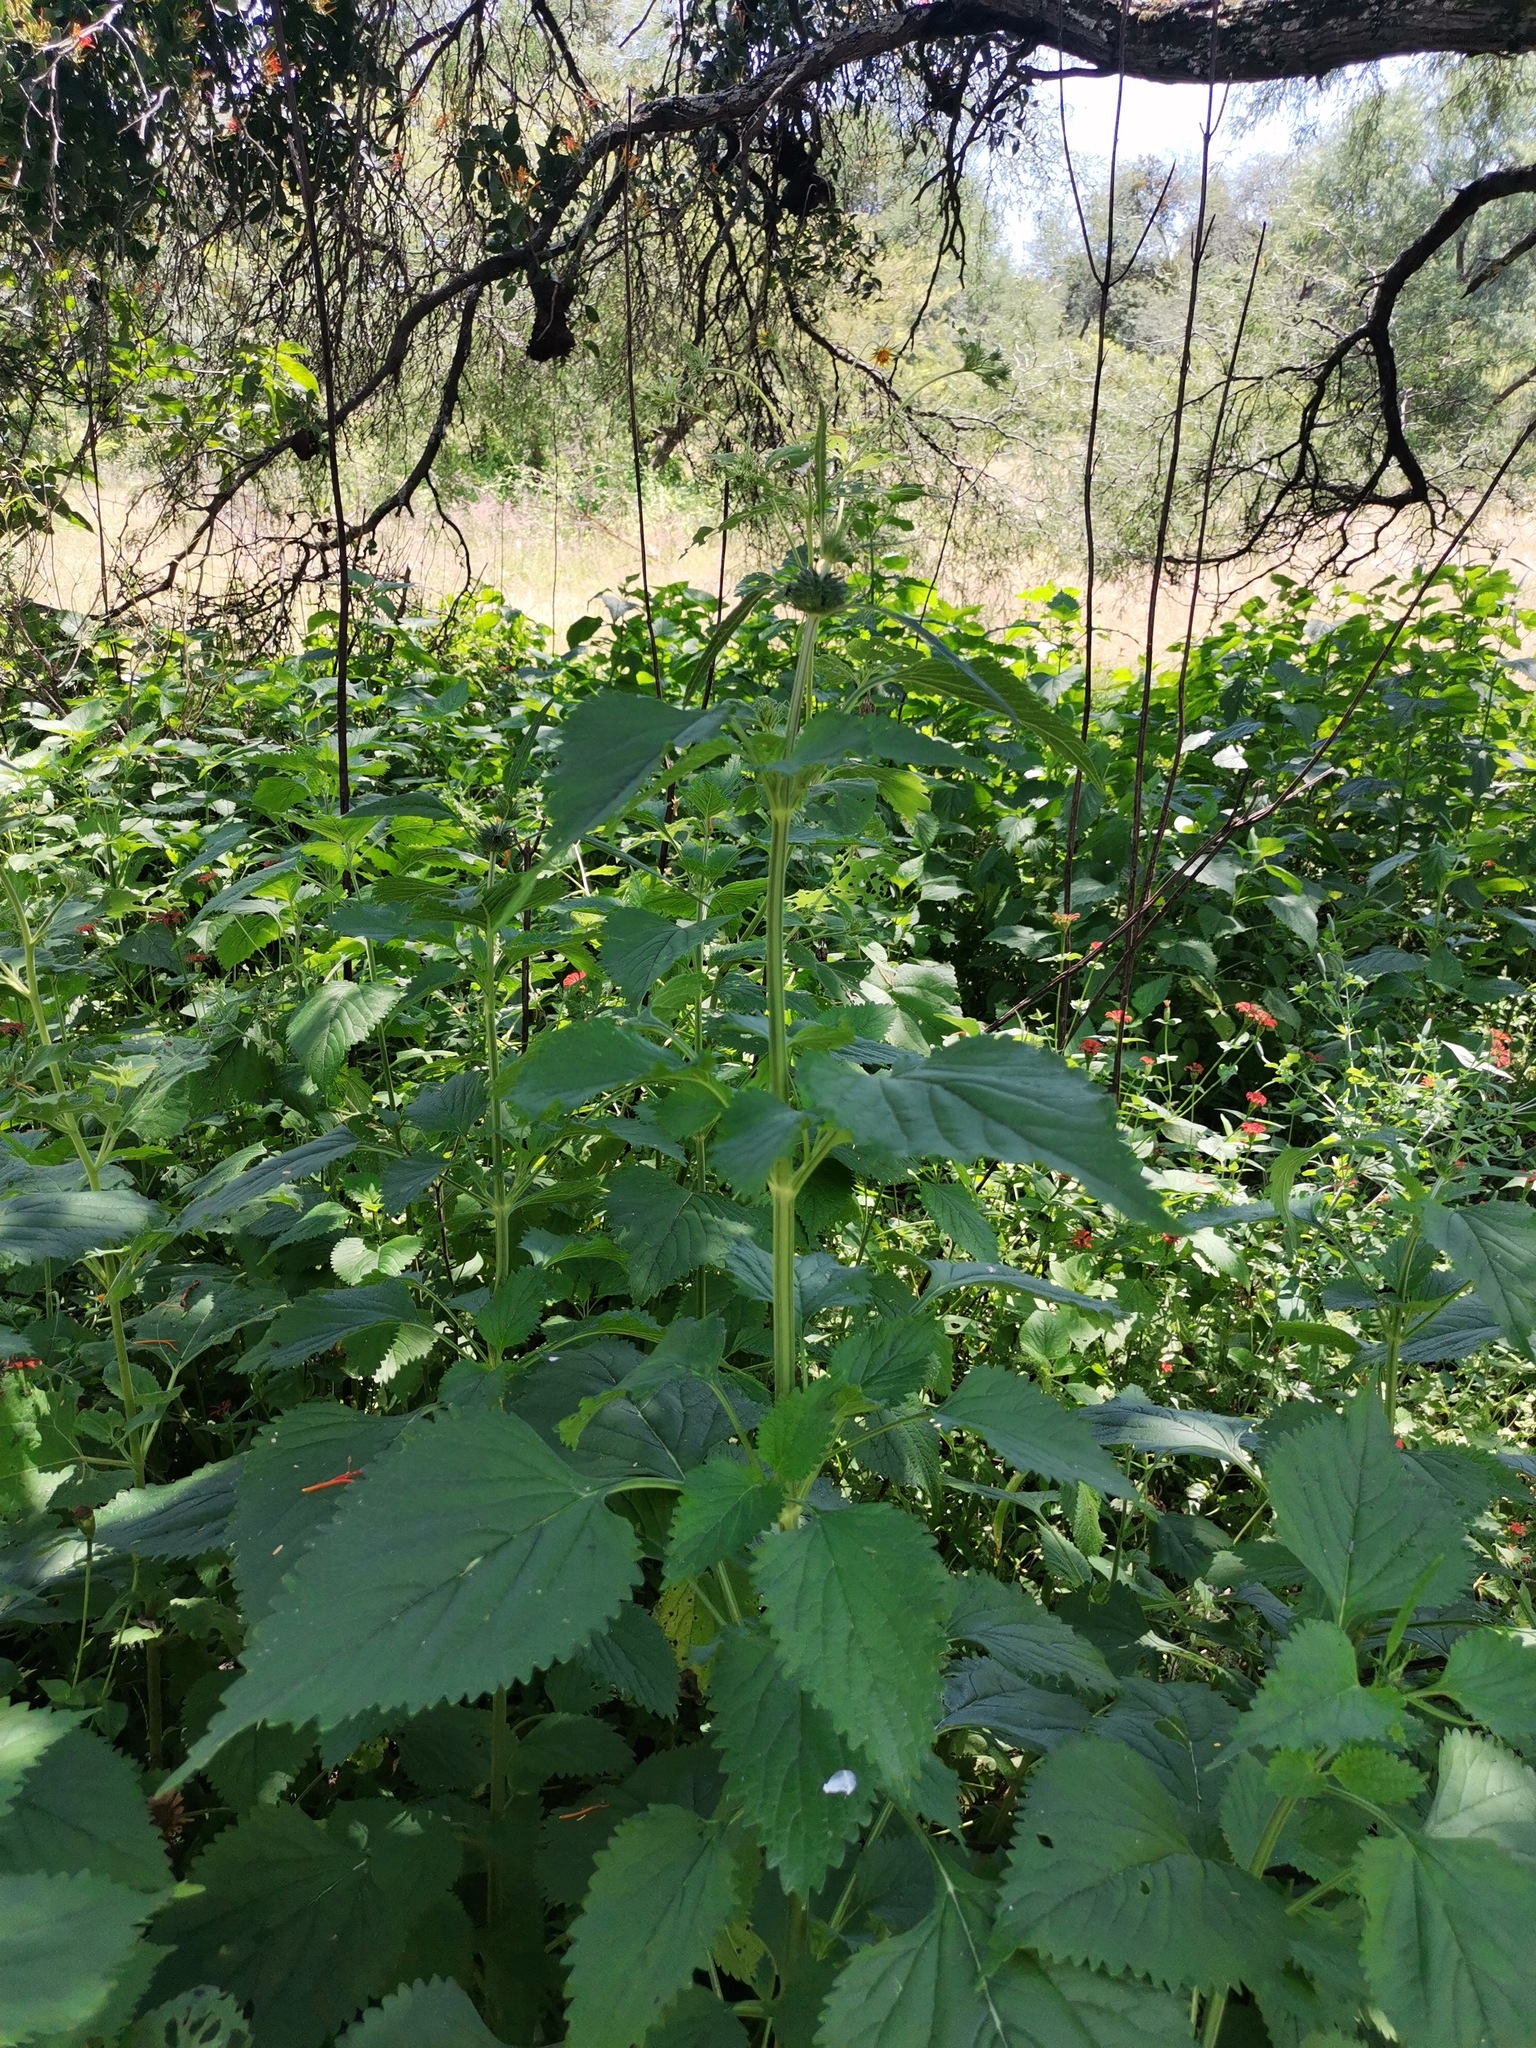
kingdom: Plantae
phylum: Tracheophyta
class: Magnoliopsida
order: Lamiales
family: Lamiaceae
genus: Leonotis
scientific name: Leonotis nepetifolia
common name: Christmas candlestick
